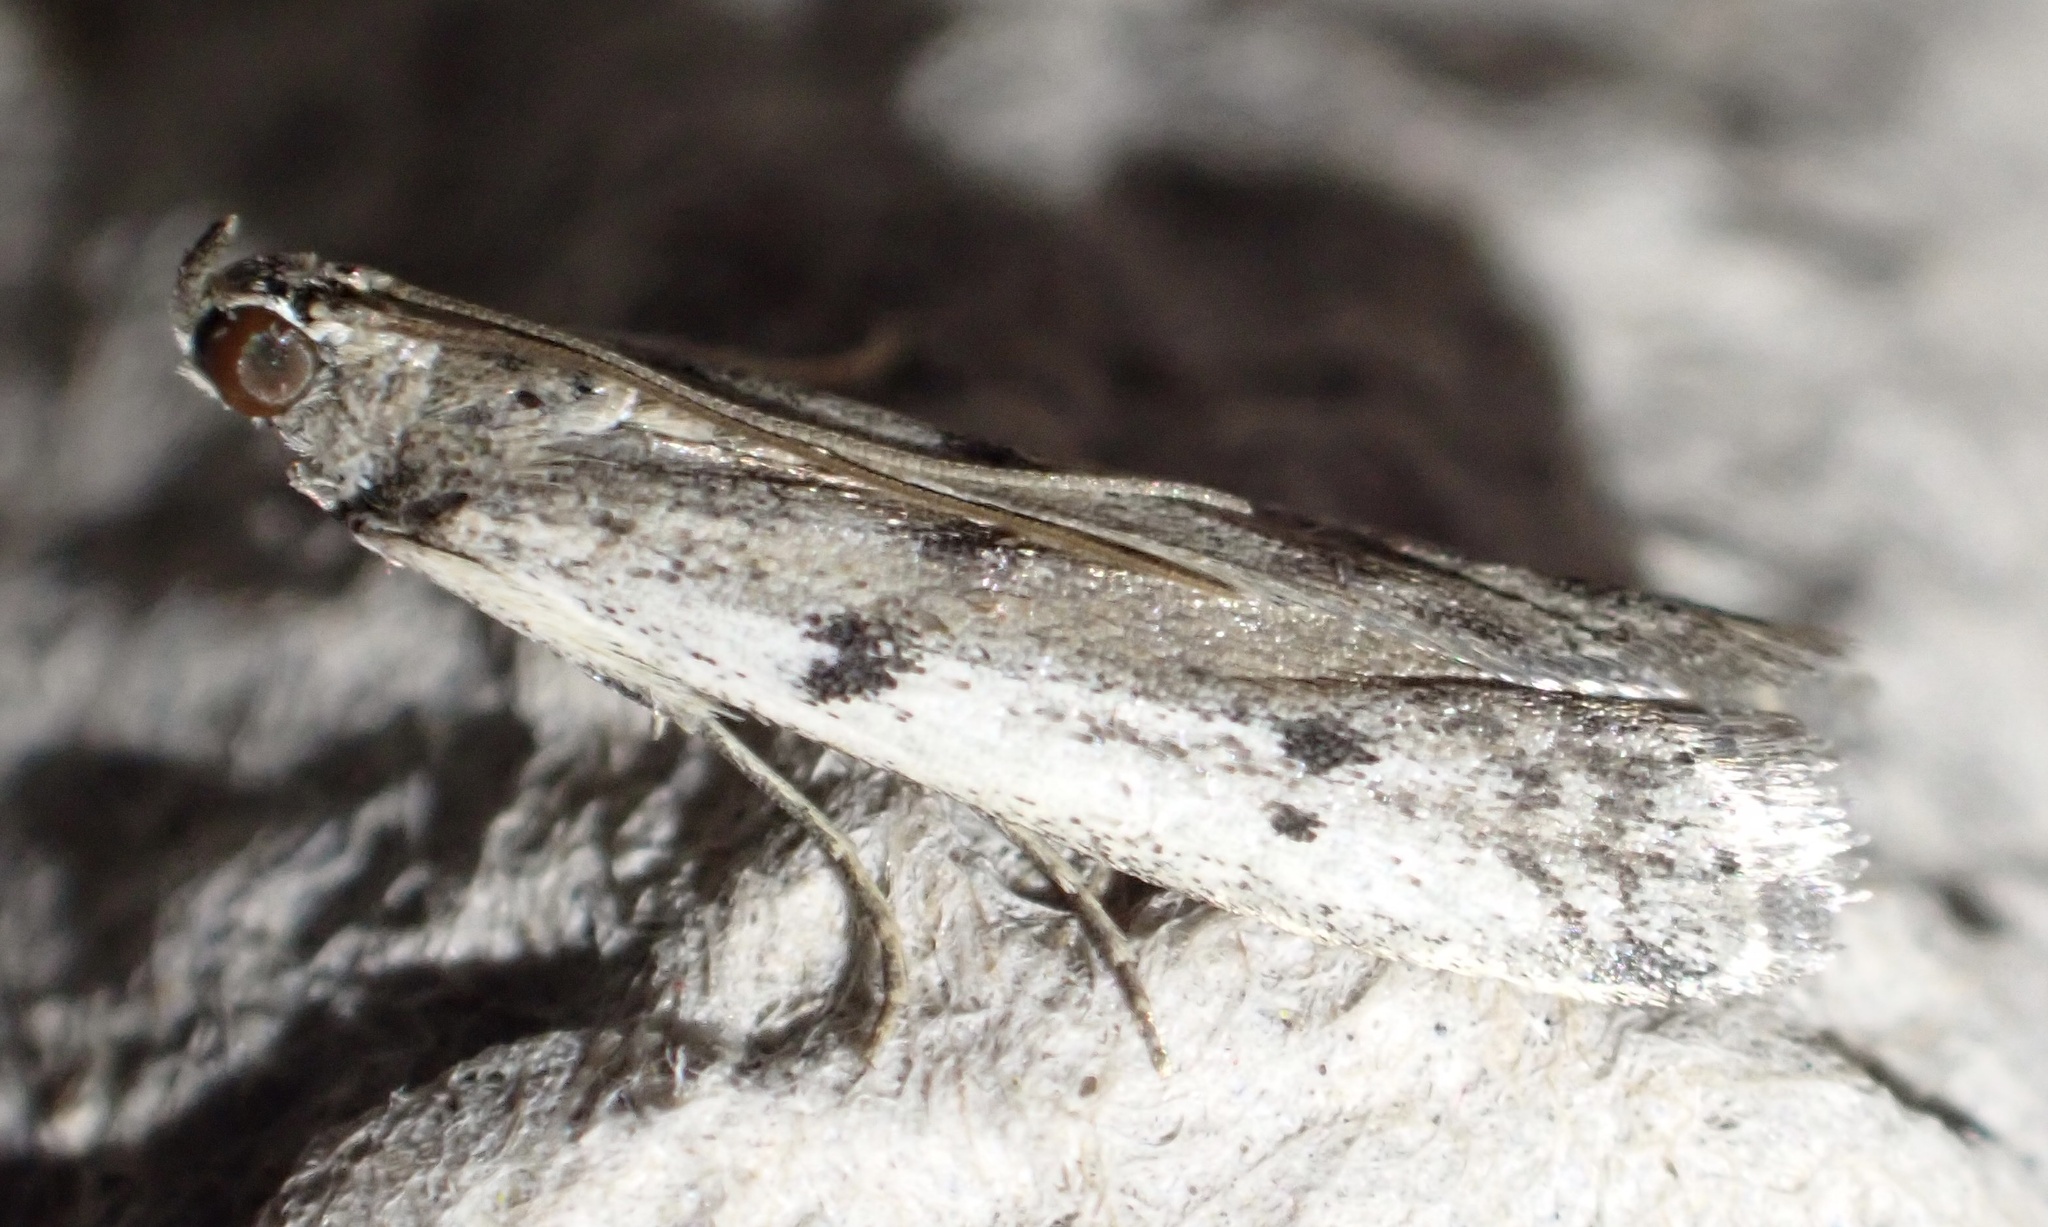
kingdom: Animalia
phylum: Arthropoda
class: Insecta
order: Lepidoptera
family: Pyralidae
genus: Phycitodes
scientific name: Phycitodes binaevella
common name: Ermine knot-horn
